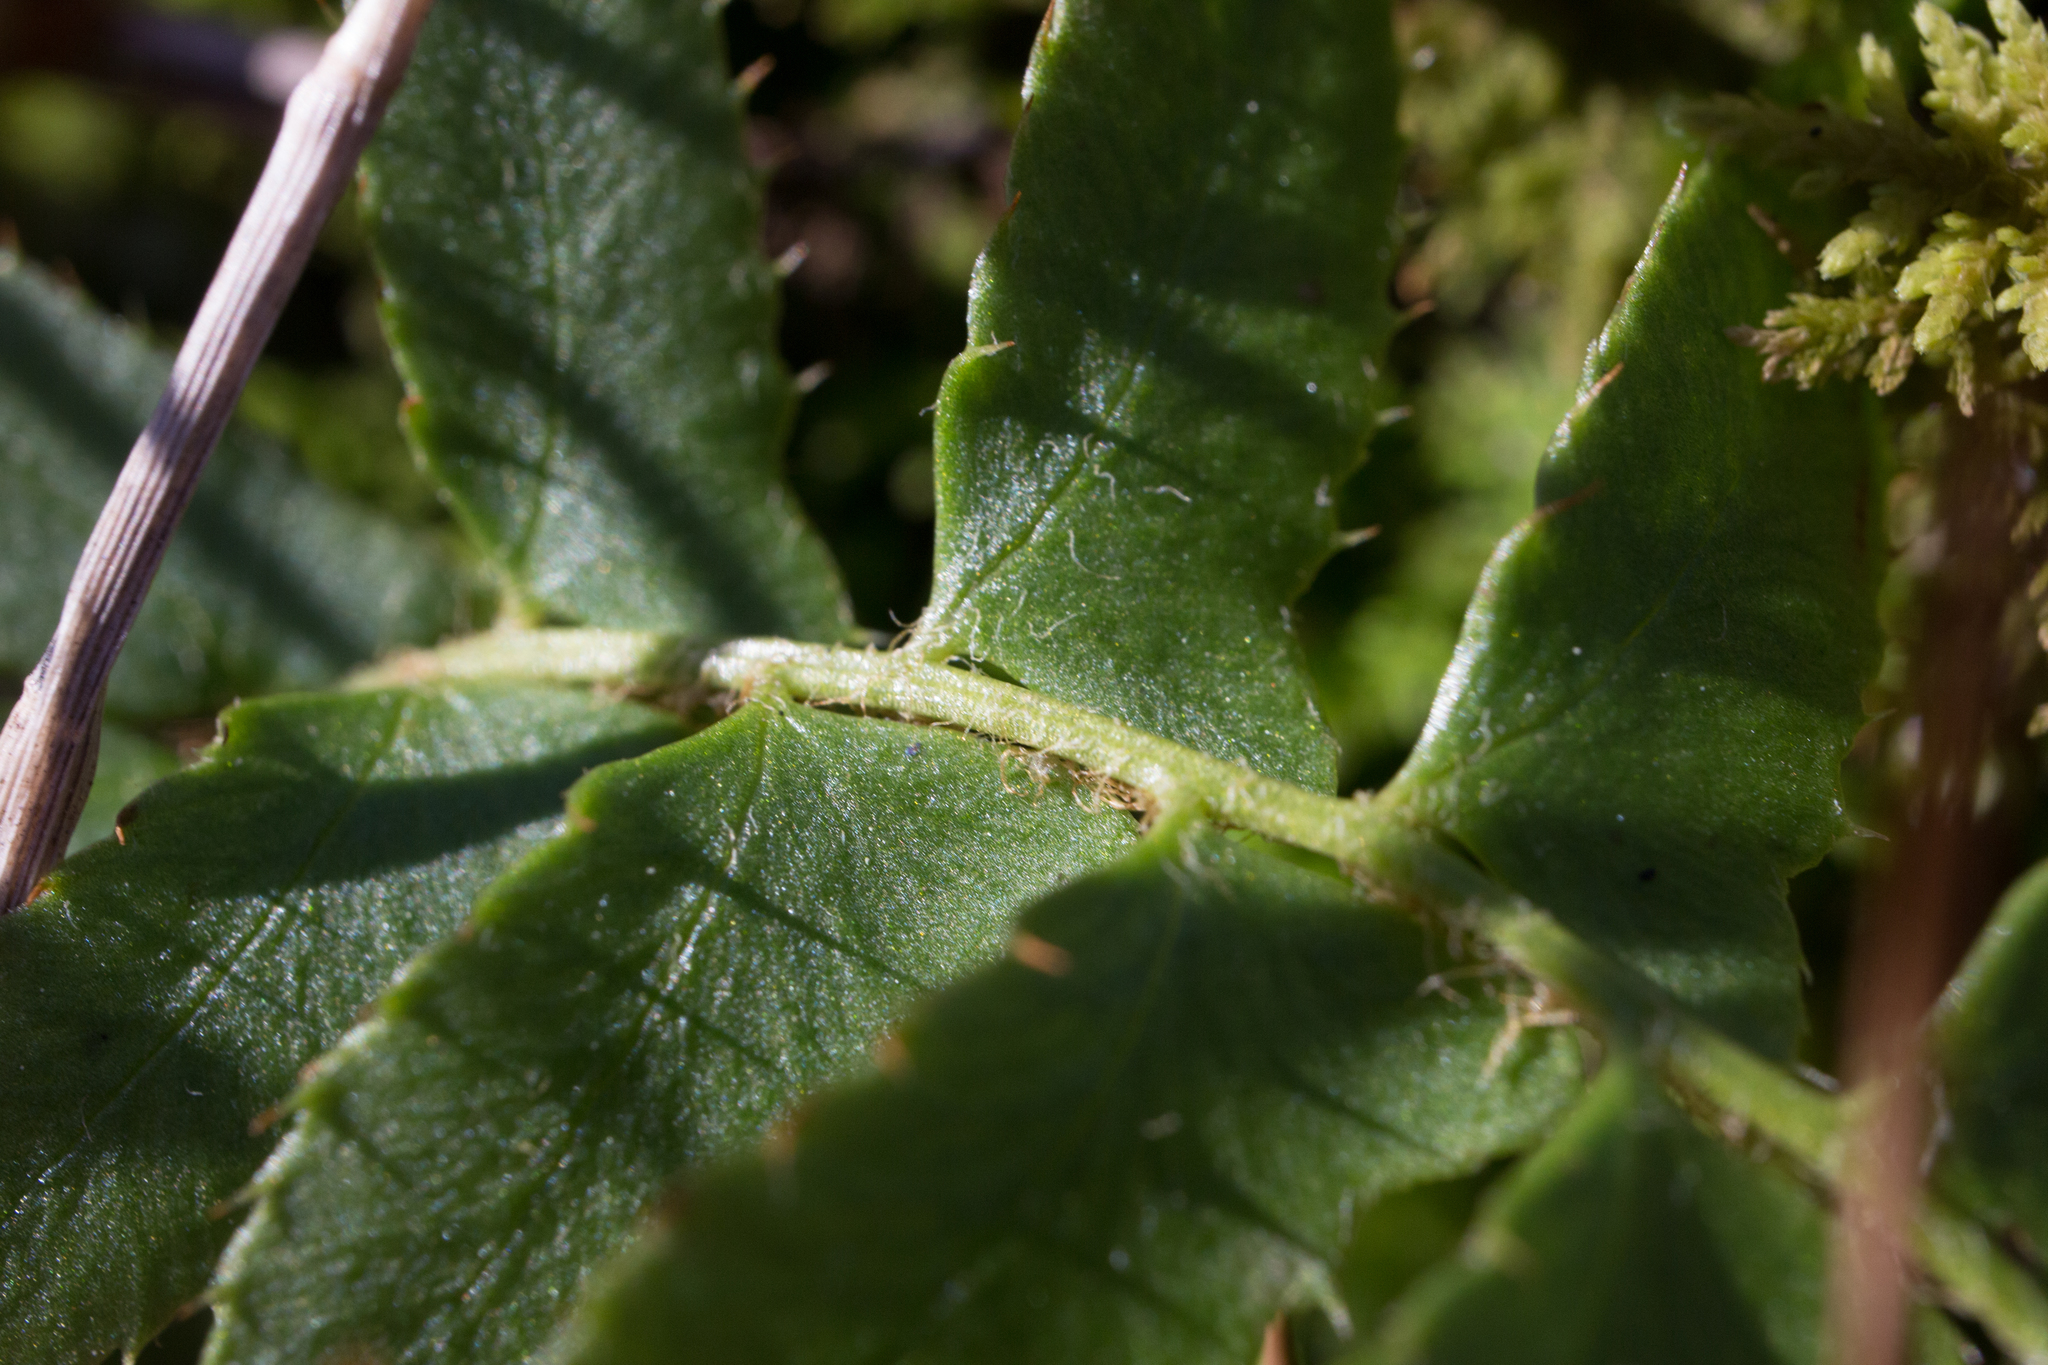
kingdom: Plantae
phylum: Tracheophyta
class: Polypodiopsida
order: Polypodiales
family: Dryopteridaceae
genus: Polystichum
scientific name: Polystichum acrostichoides
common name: Christmas fern
